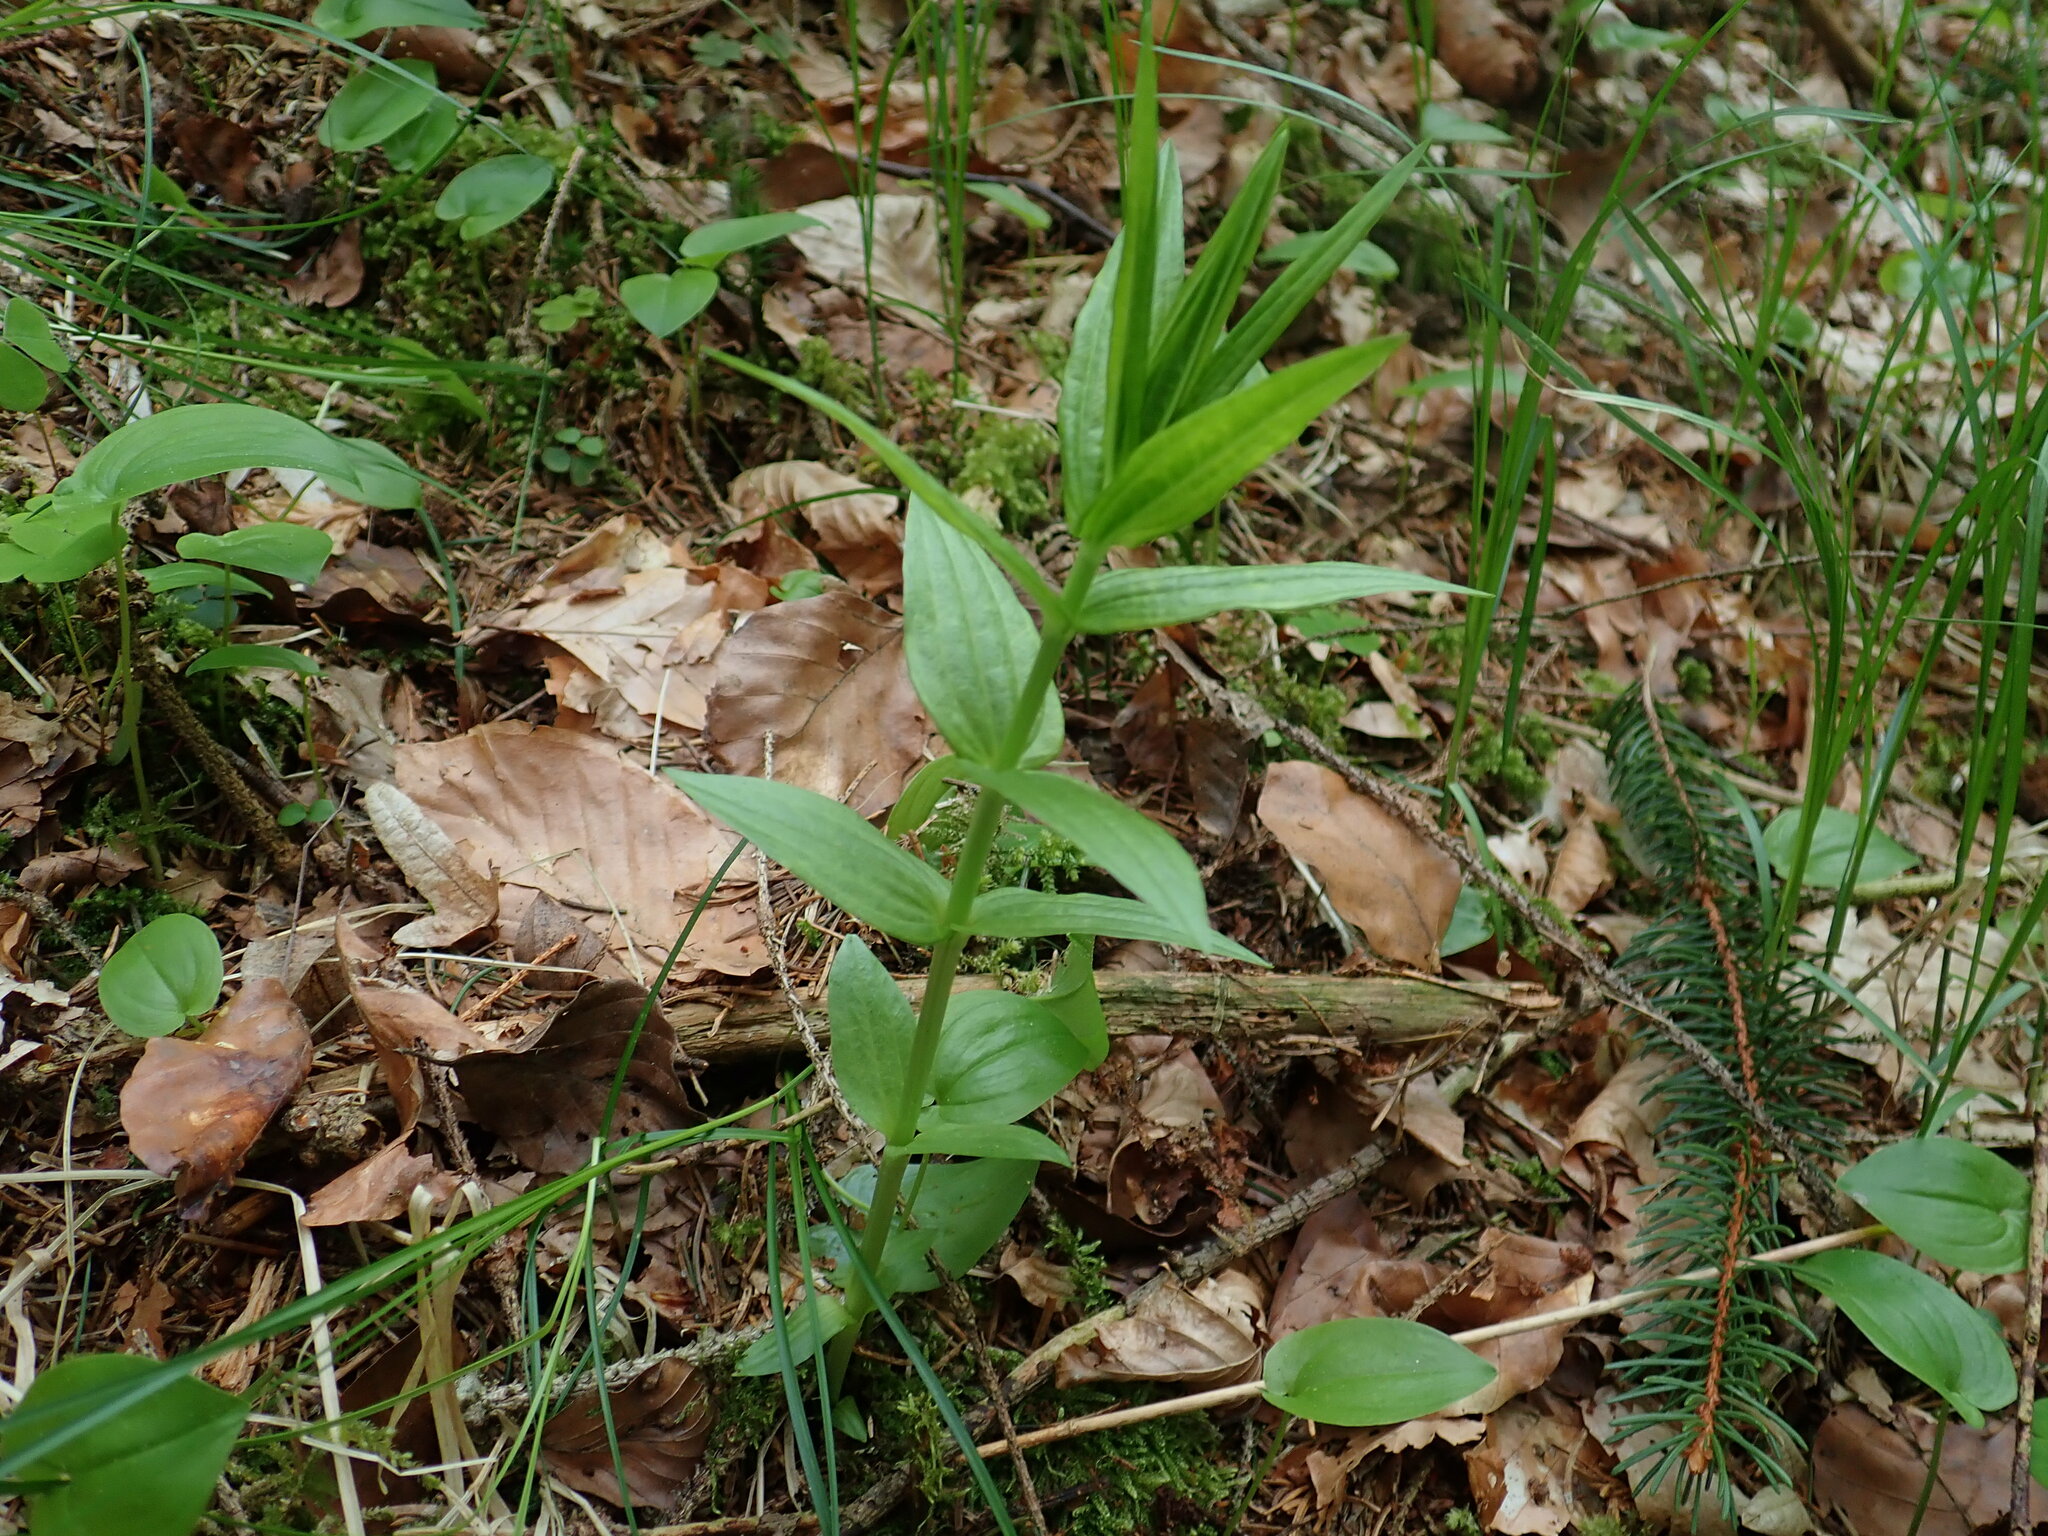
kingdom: Plantae
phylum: Tracheophyta
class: Magnoliopsida
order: Gentianales
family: Gentianaceae
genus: Gentiana
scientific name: Gentiana asclepiadea
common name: Willow gentian
